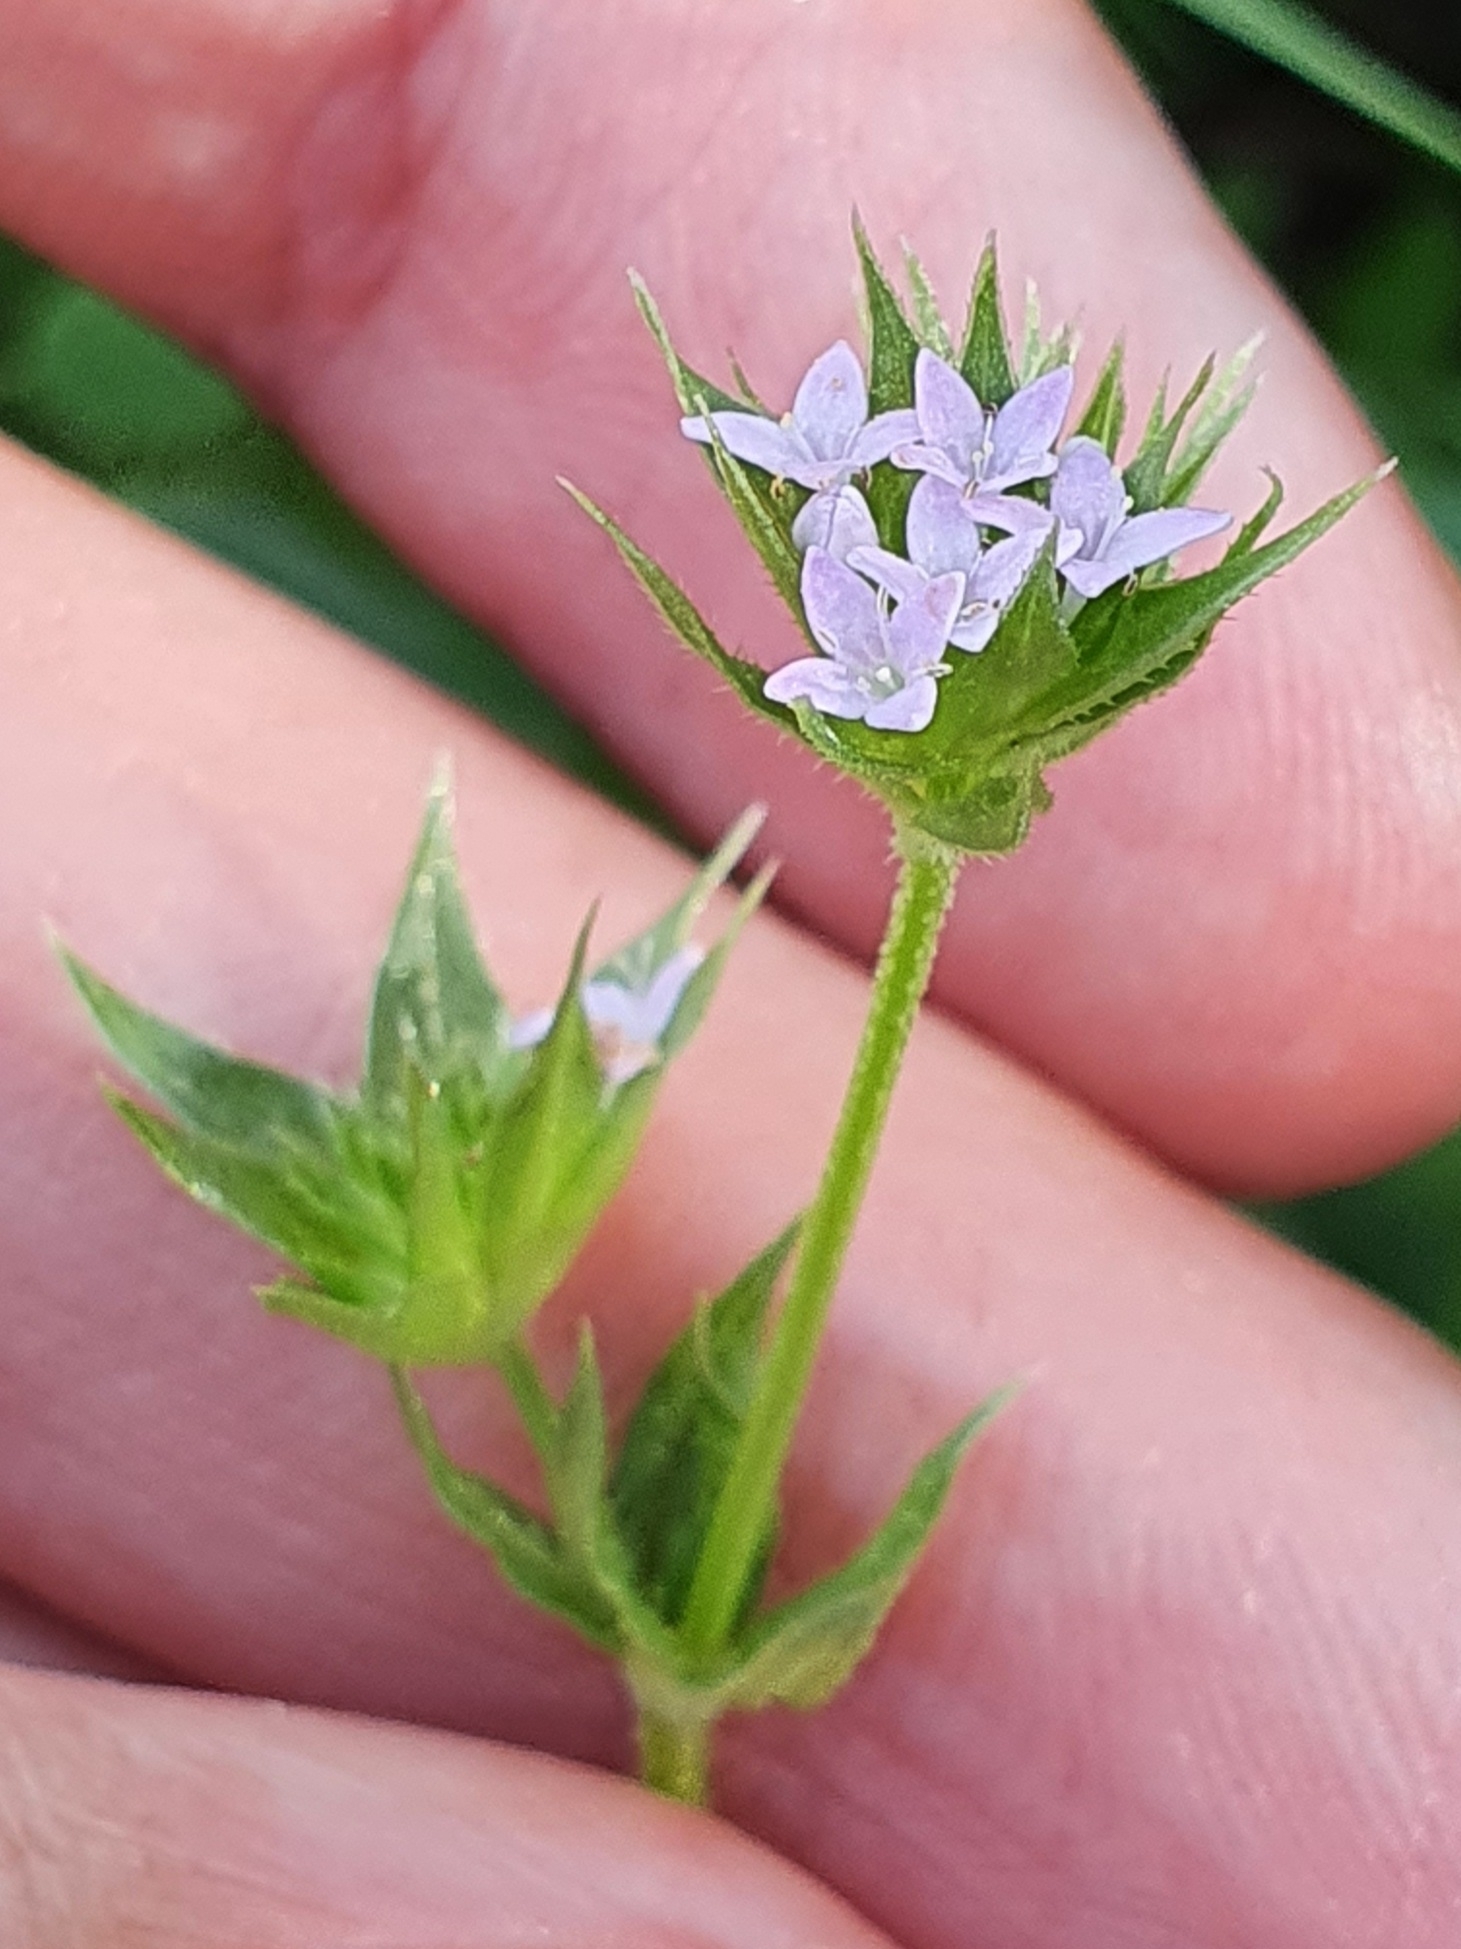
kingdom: Plantae
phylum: Tracheophyta
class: Magnoliopsida
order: Gentianales
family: Rubiaceae
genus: Sherardia
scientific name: Sherardia arvensis
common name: Field madder
